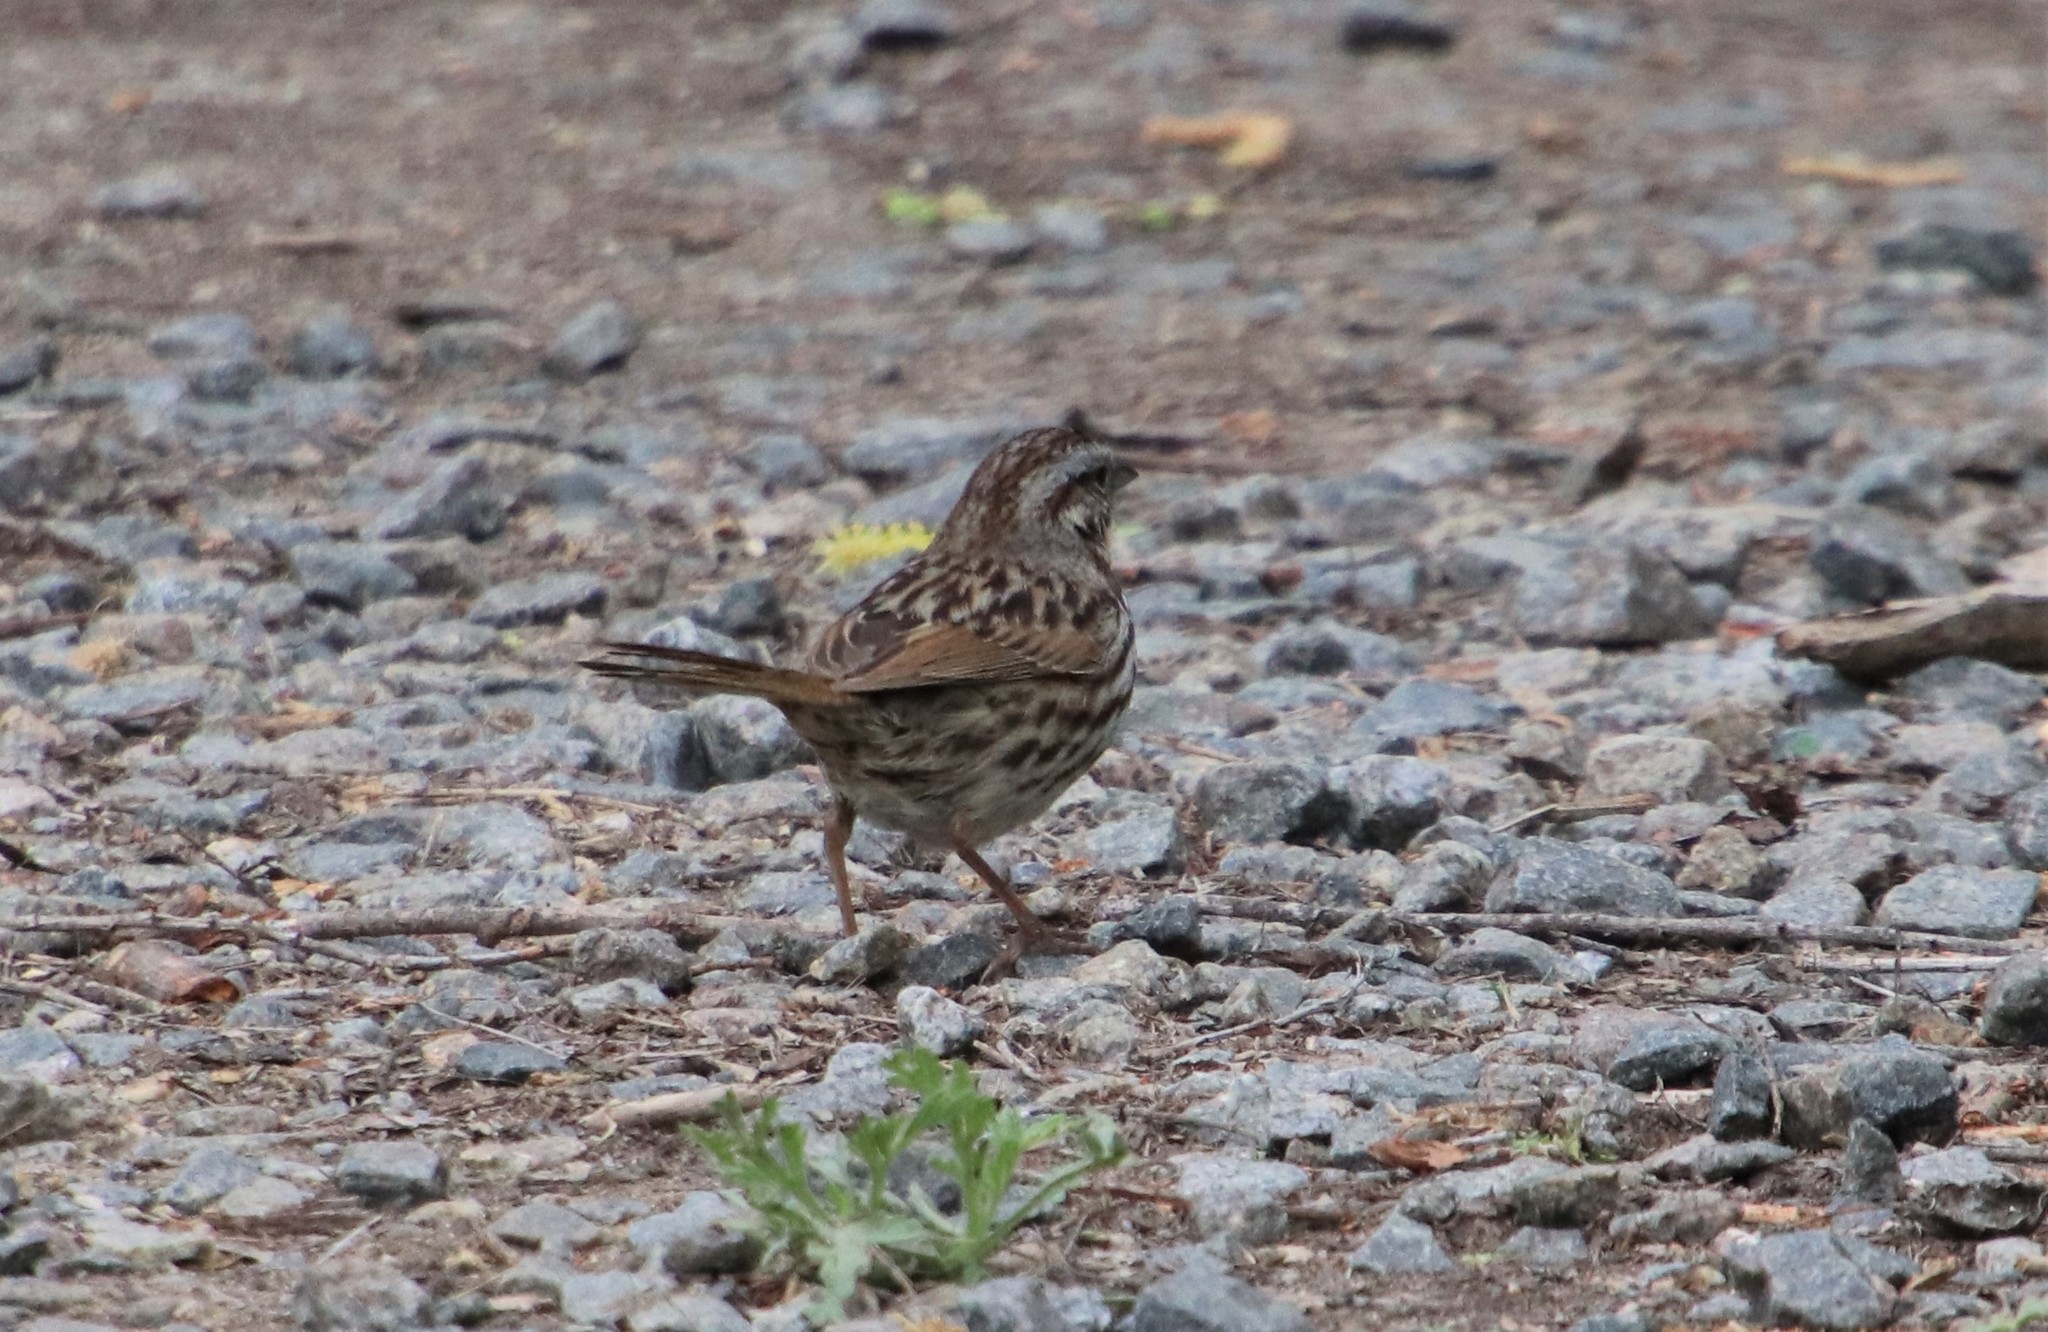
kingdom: Animalia
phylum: Chordata
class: Aves
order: Passeriformes
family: Passerellidae
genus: Melospiza
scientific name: Melospiza melodia
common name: Song sparrow
